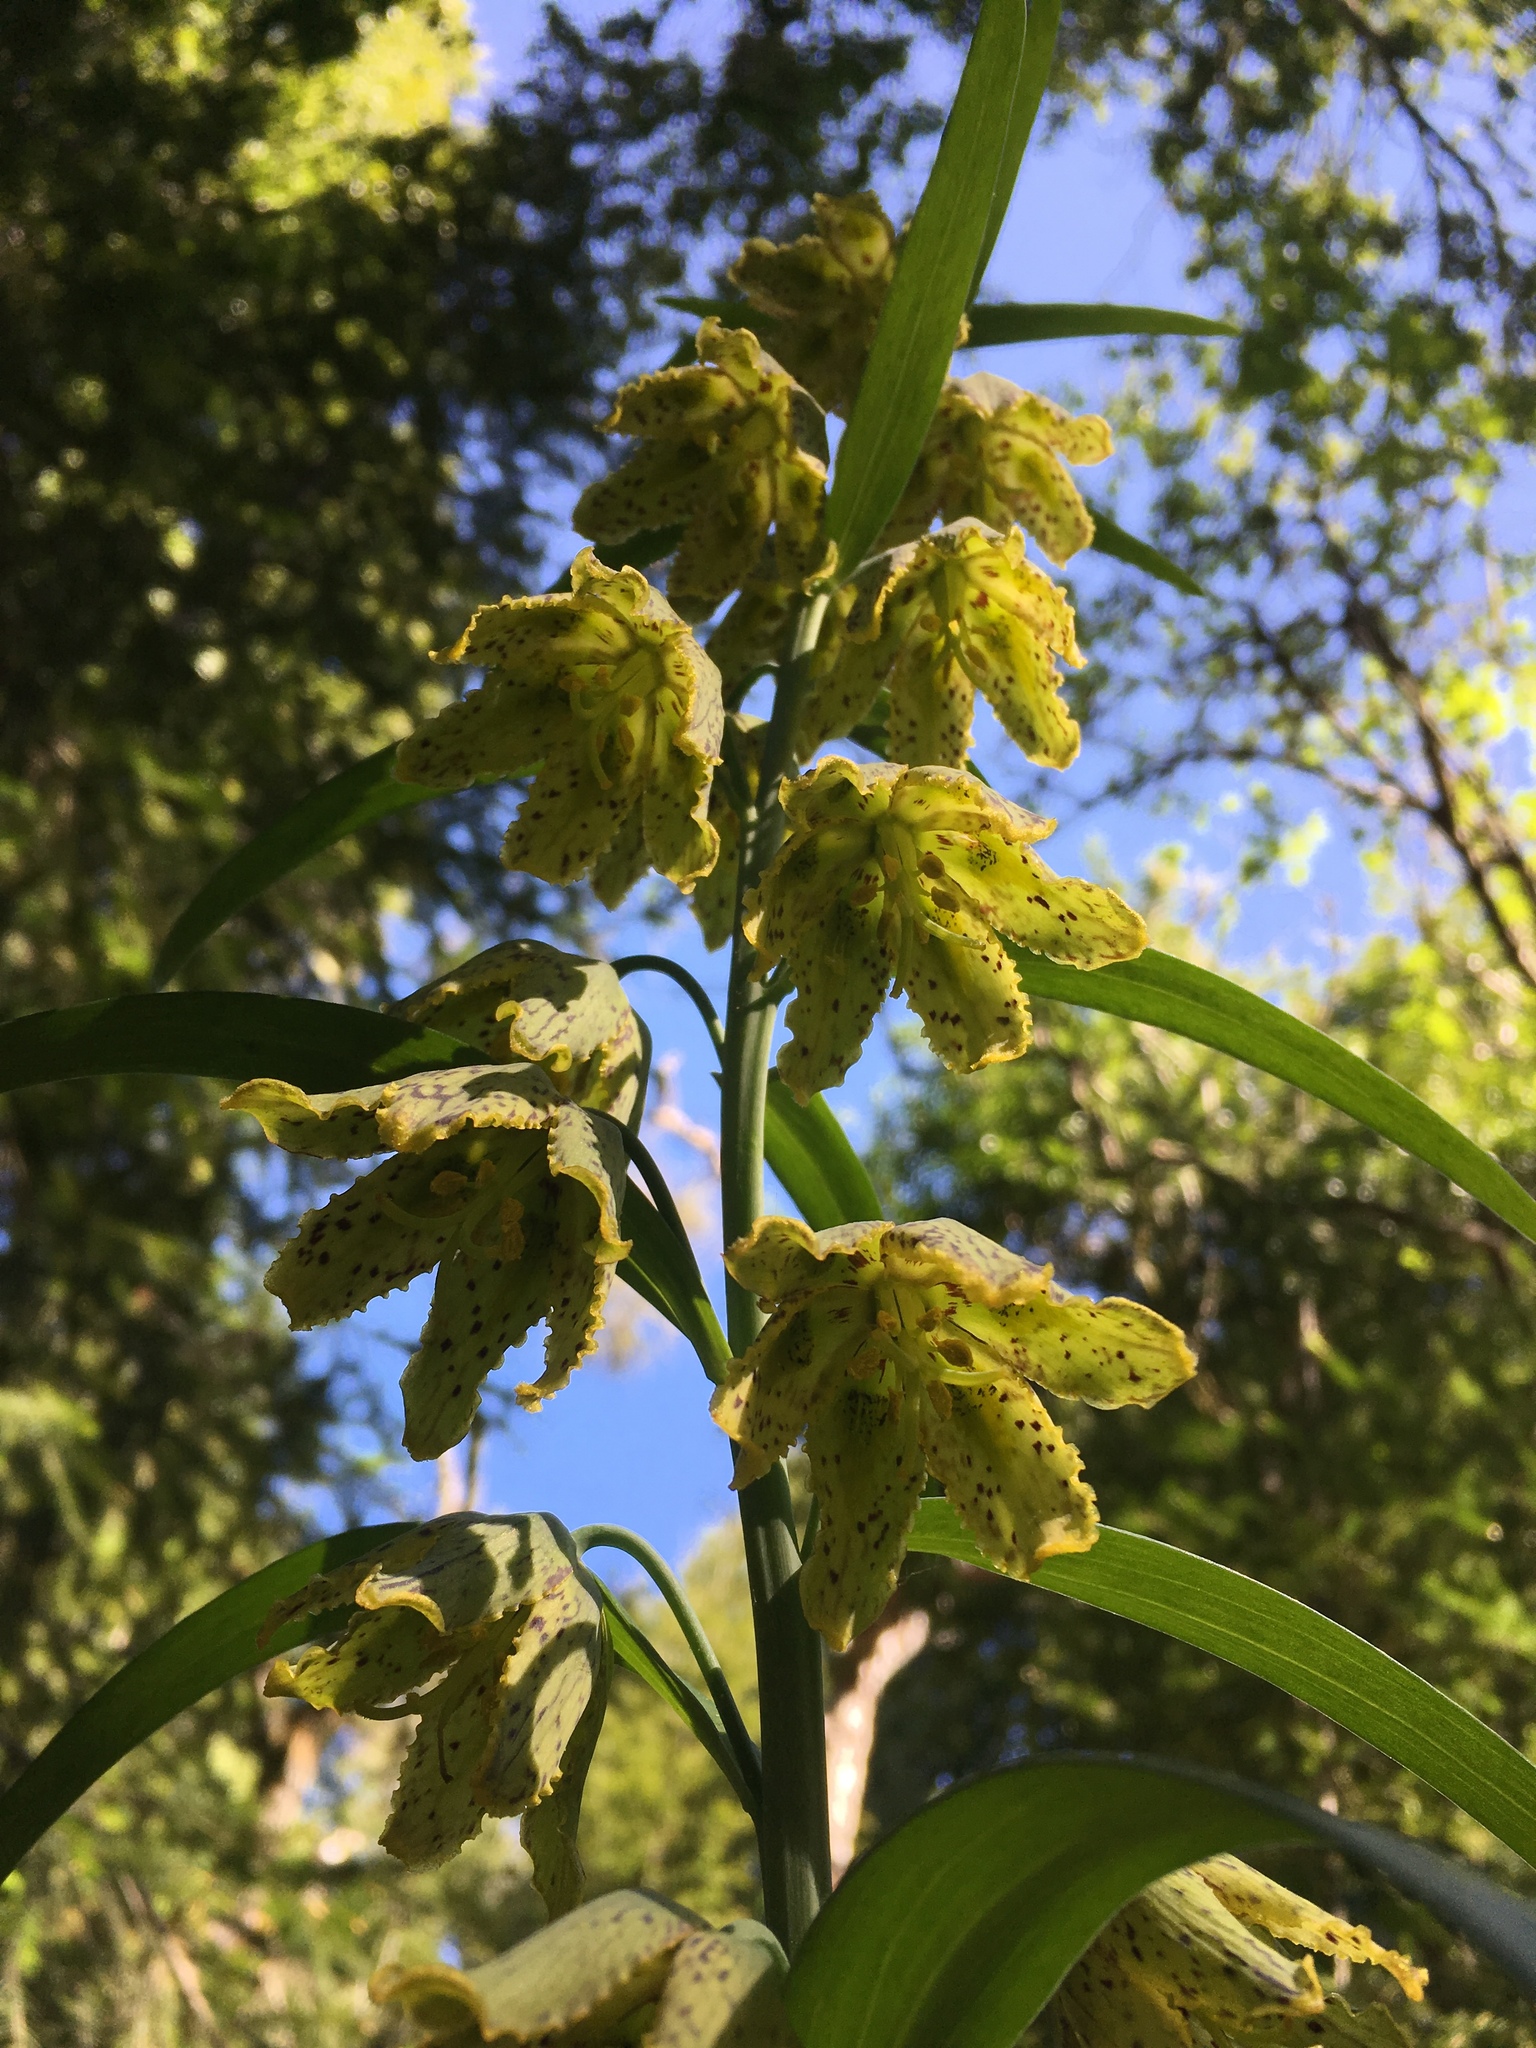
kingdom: Plantae
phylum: Tracheophyta
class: Liliopsida
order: Liliales
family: Liliaceae
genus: Fritillaria
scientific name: Fritillaria affinis
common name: Ojai fritillary
